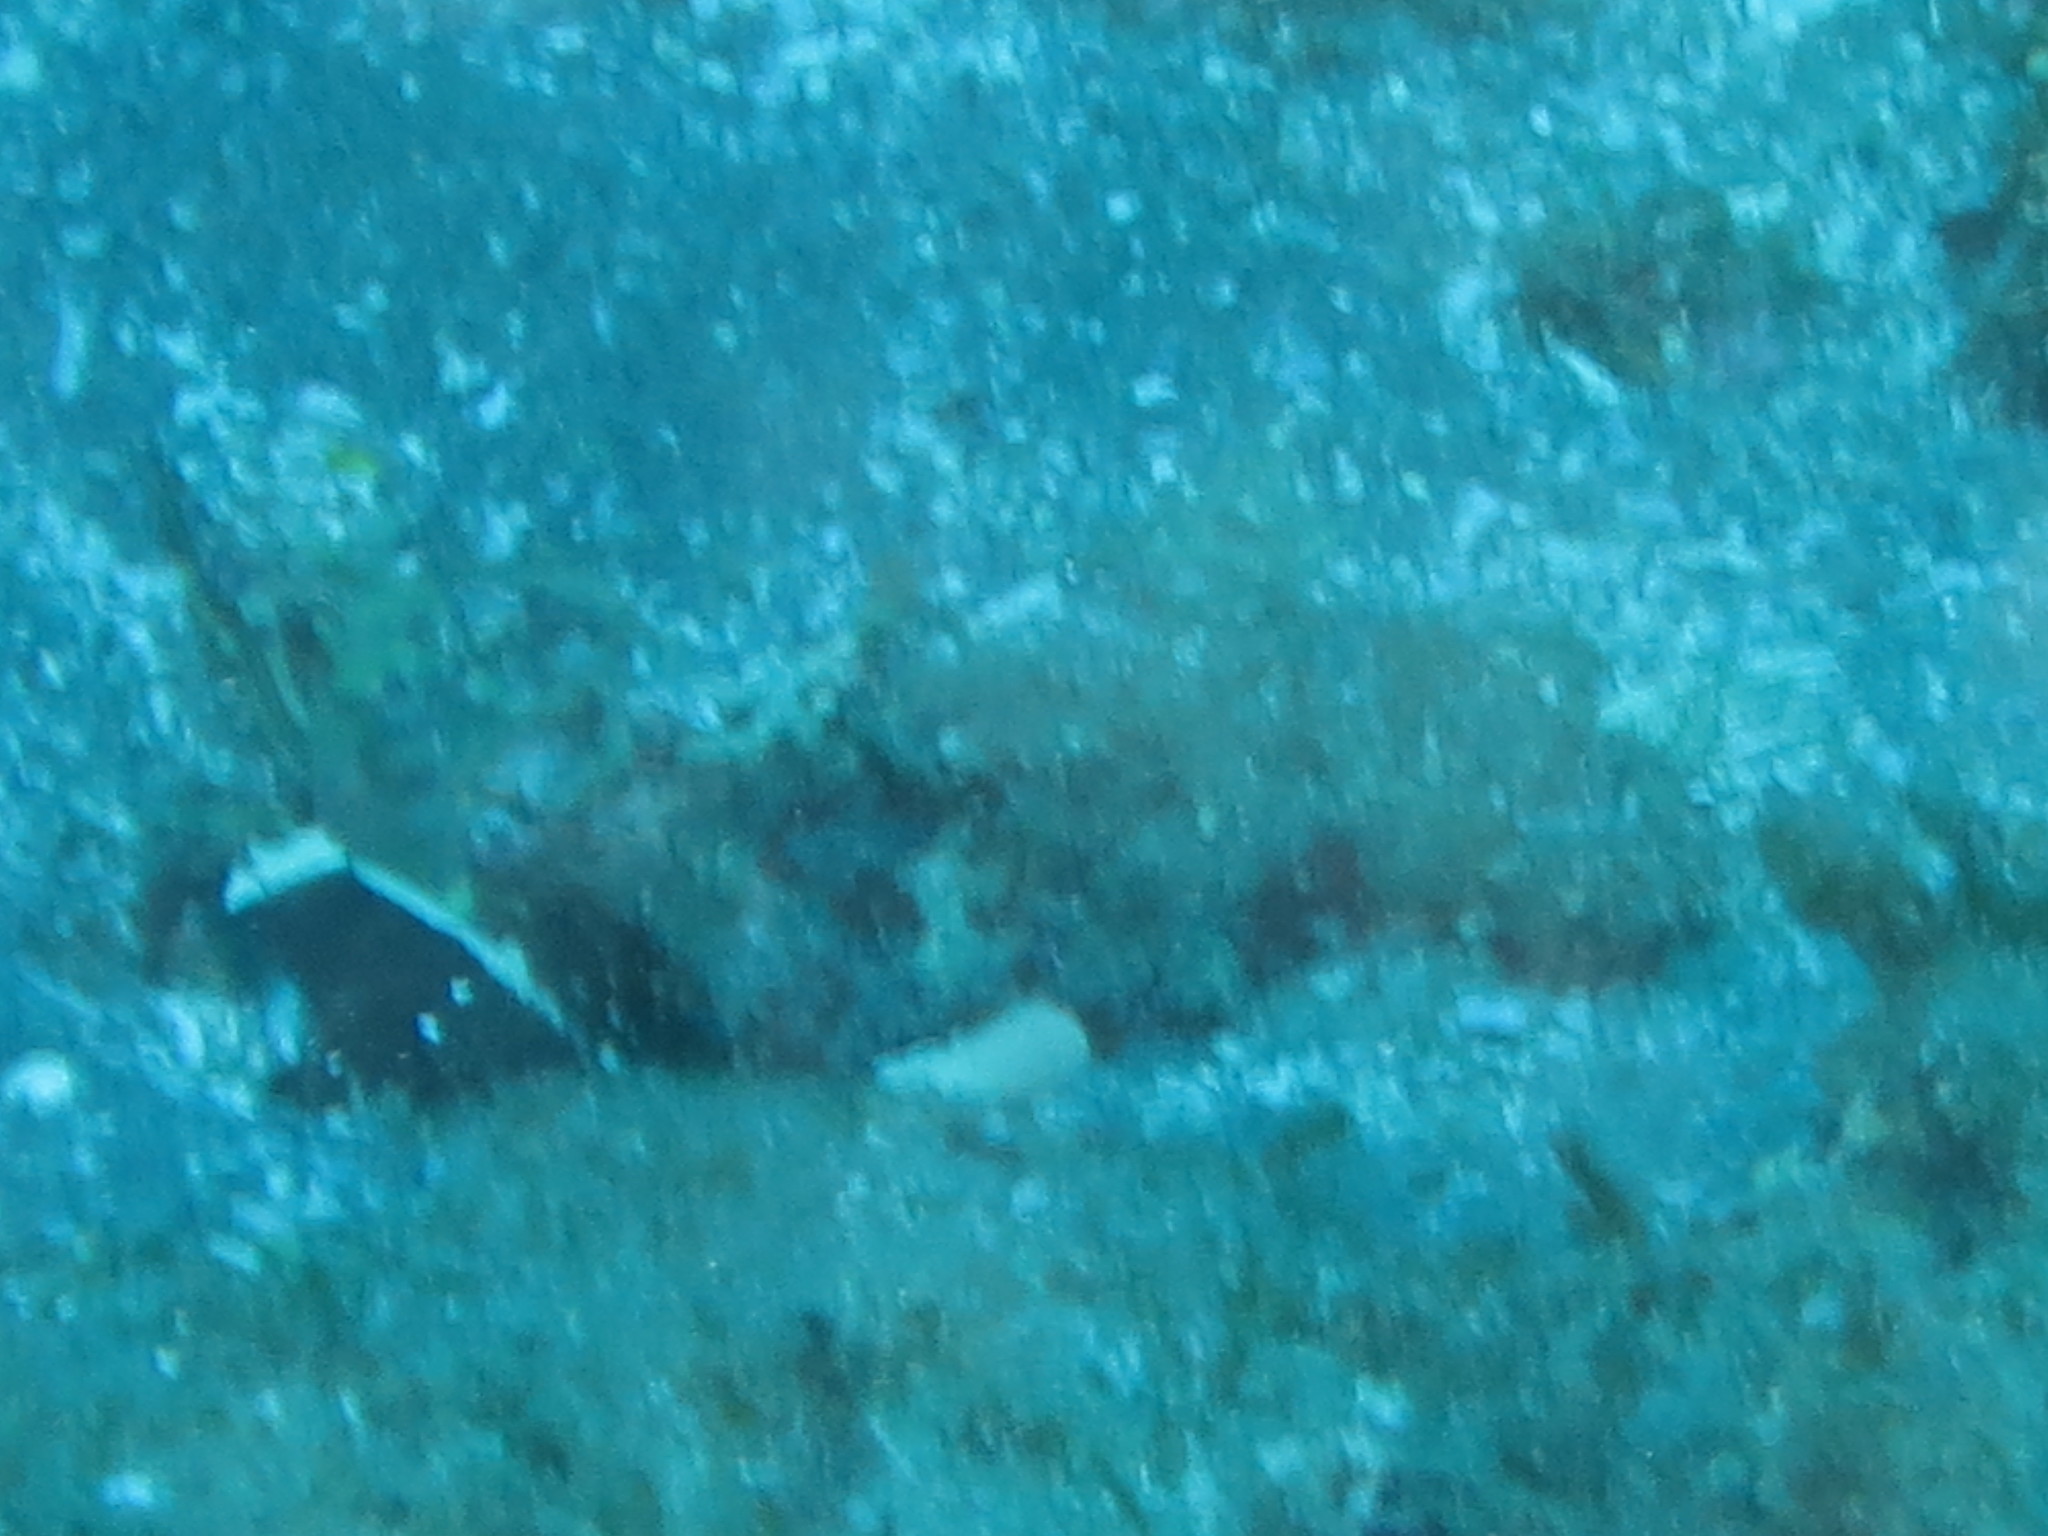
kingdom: Animalia
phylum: Chordata
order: Perciformes
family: Gobiidae
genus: Cryptocentrus
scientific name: Cryptocentrus malindiensis
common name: Chocolate shrimp-goby
